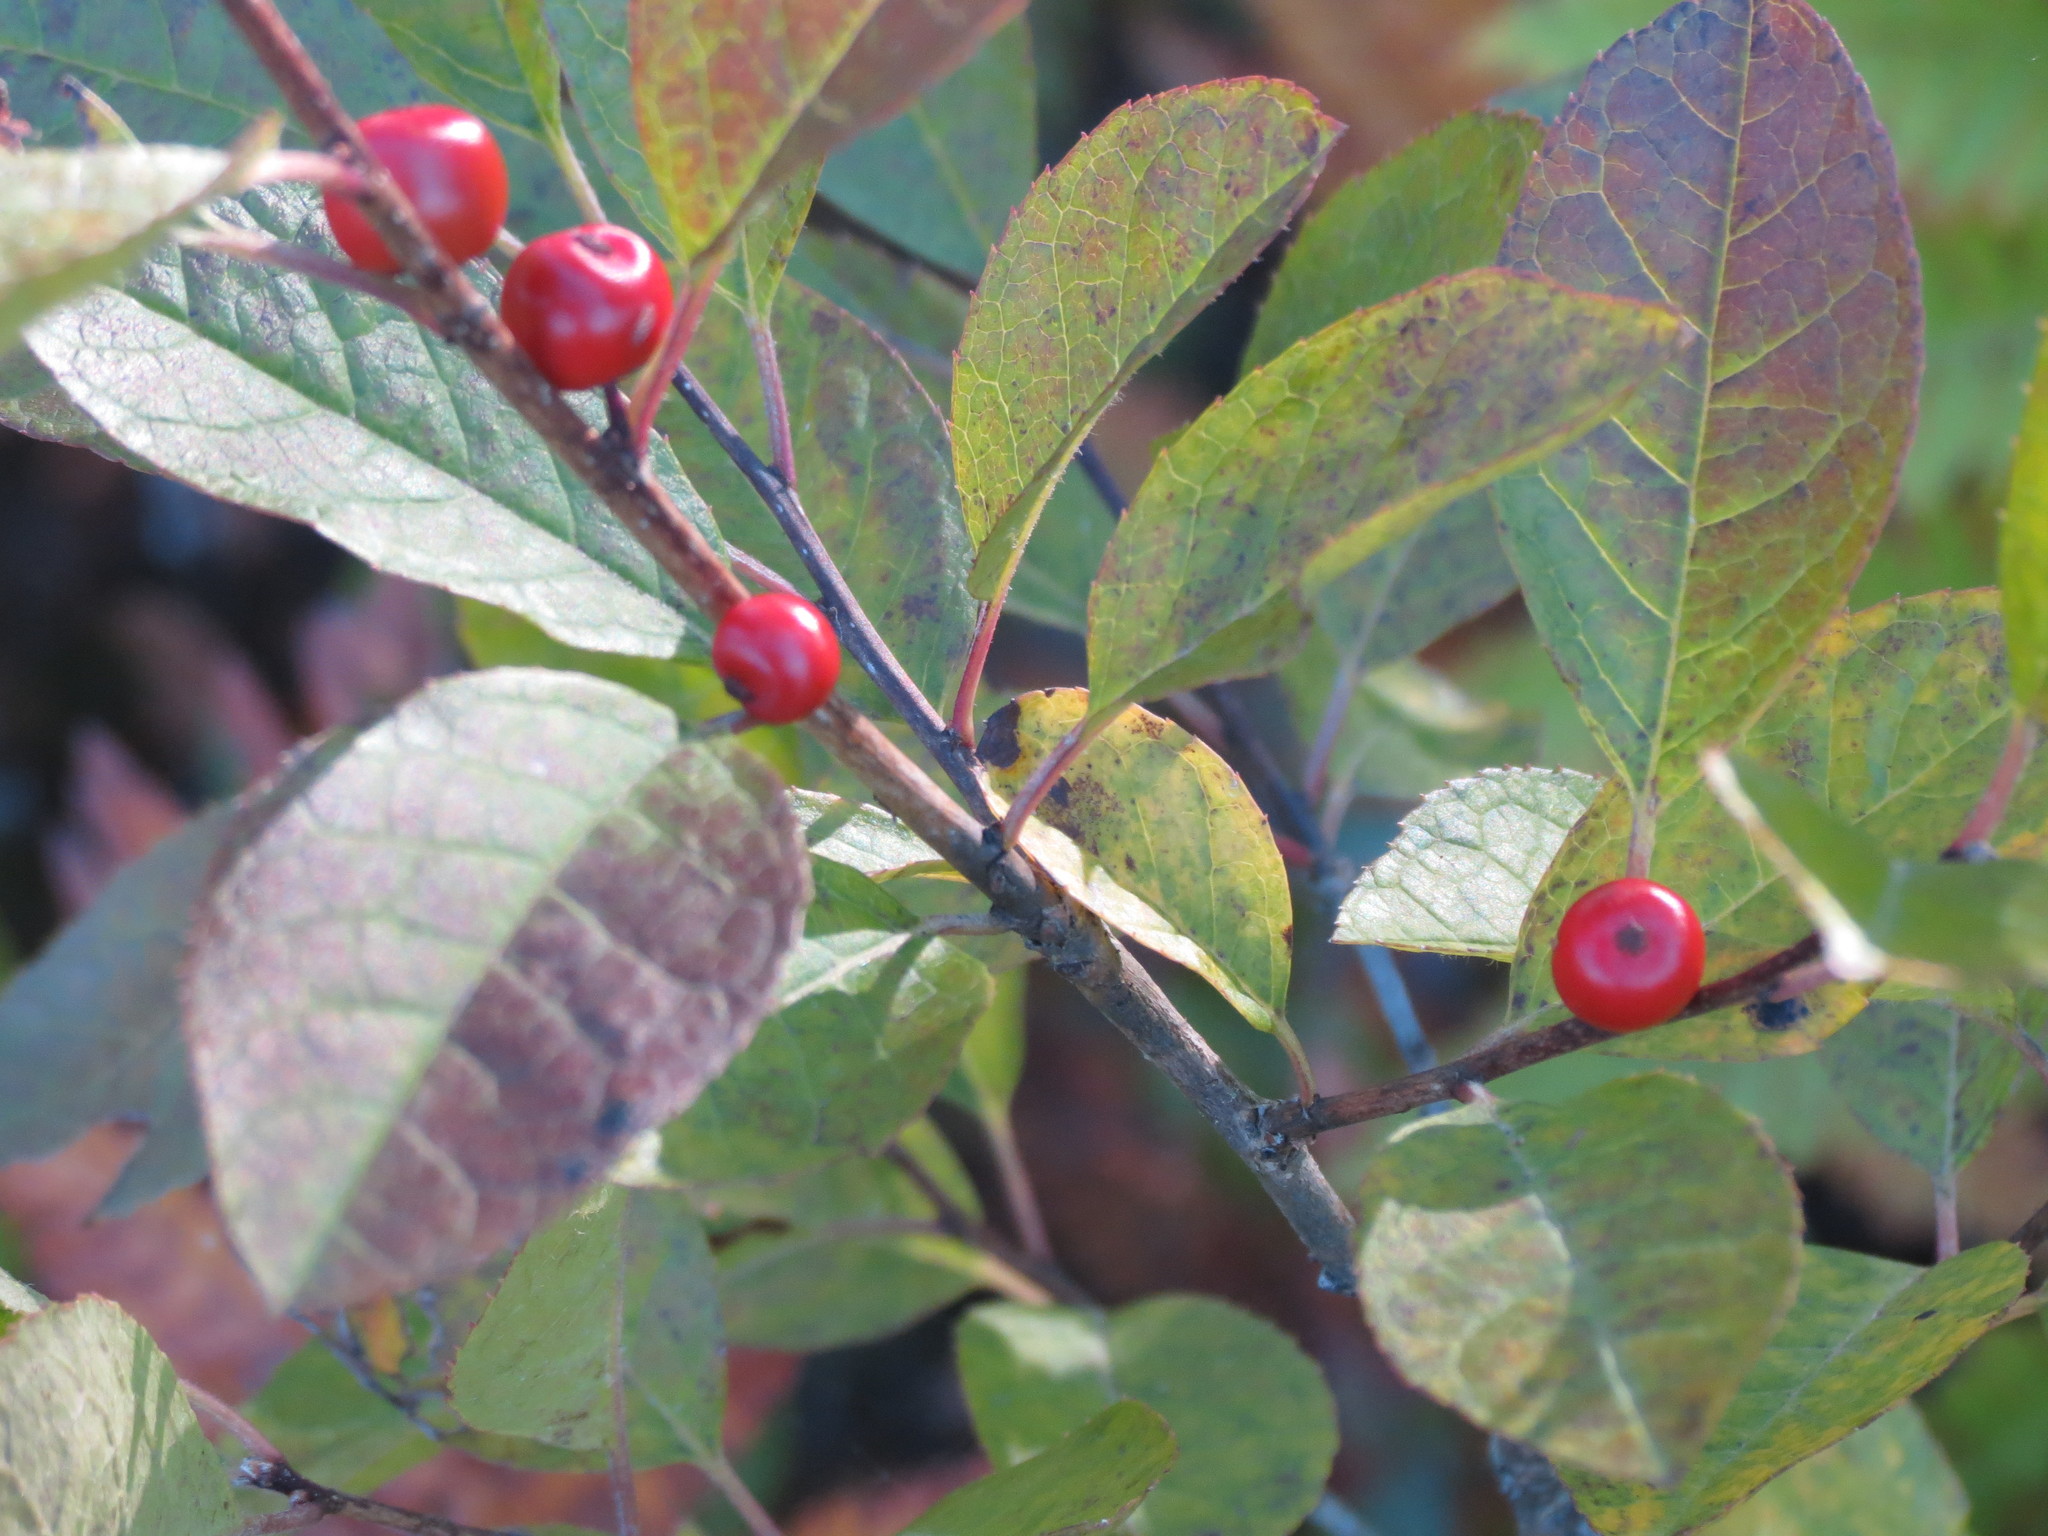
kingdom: Plantae
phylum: Tracheophyta
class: Magnoliopsida
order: Aquifoliales
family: Aquifoliaceae
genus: Ilex
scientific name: Ilex verticillata
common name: Virginia winterberry
